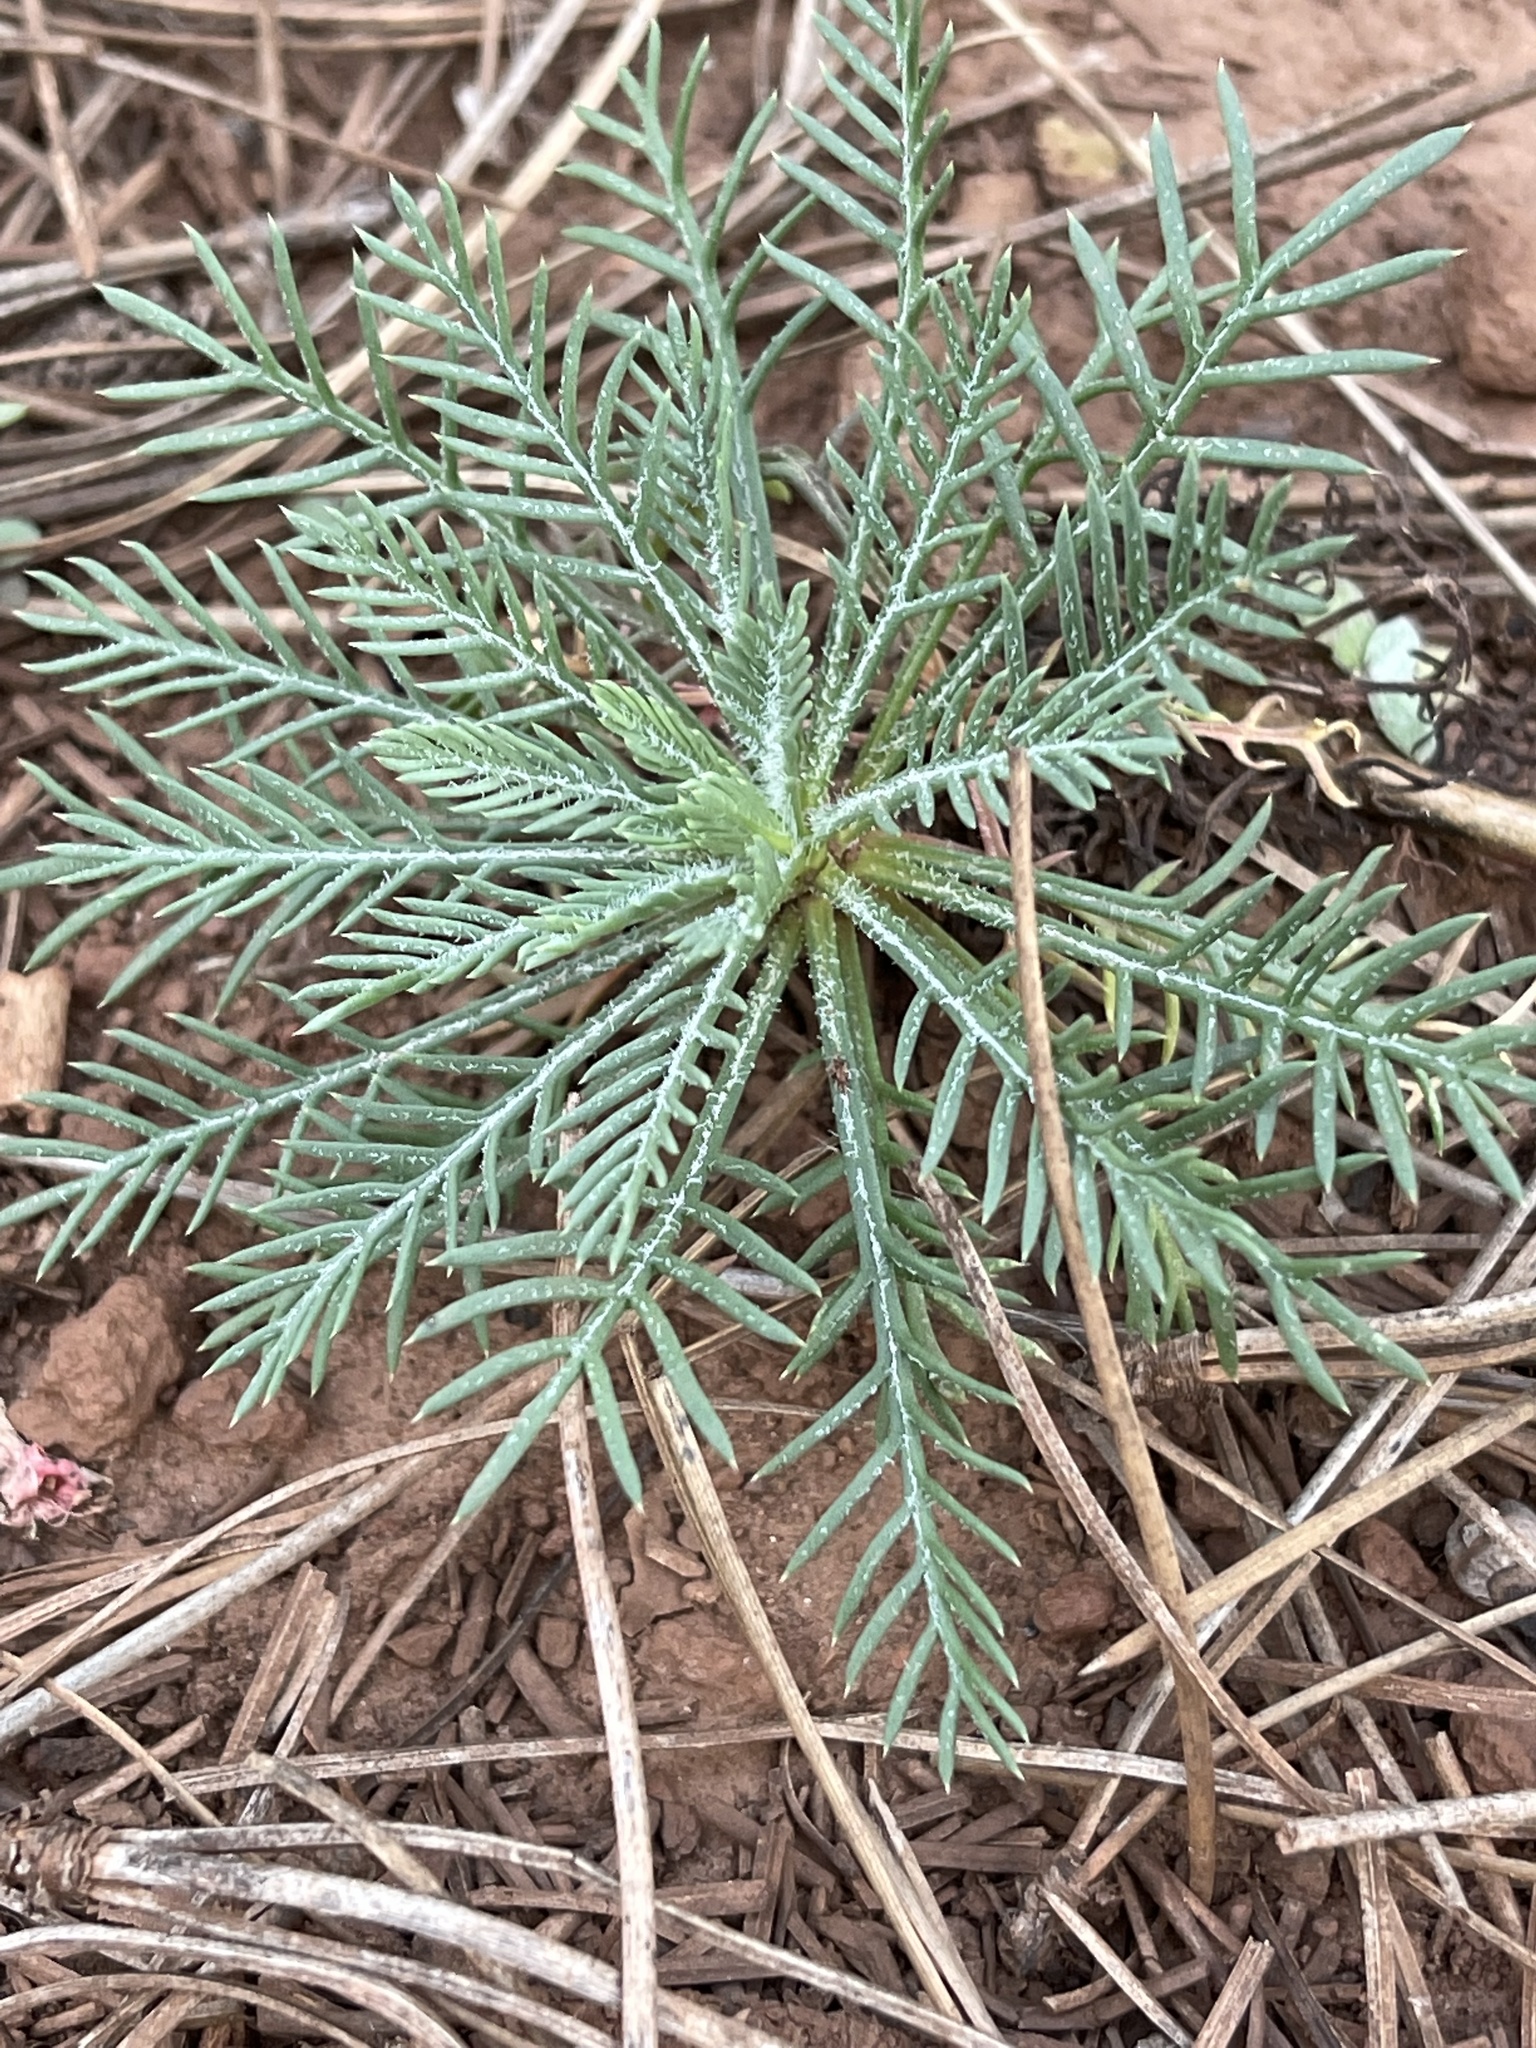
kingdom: Plantae
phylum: Tracheophyta
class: Magnoliopsida
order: Ericales
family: Polemoniaceae
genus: Ipomopsis
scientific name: Ipomopsis aggregata
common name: Scarlet gilia
